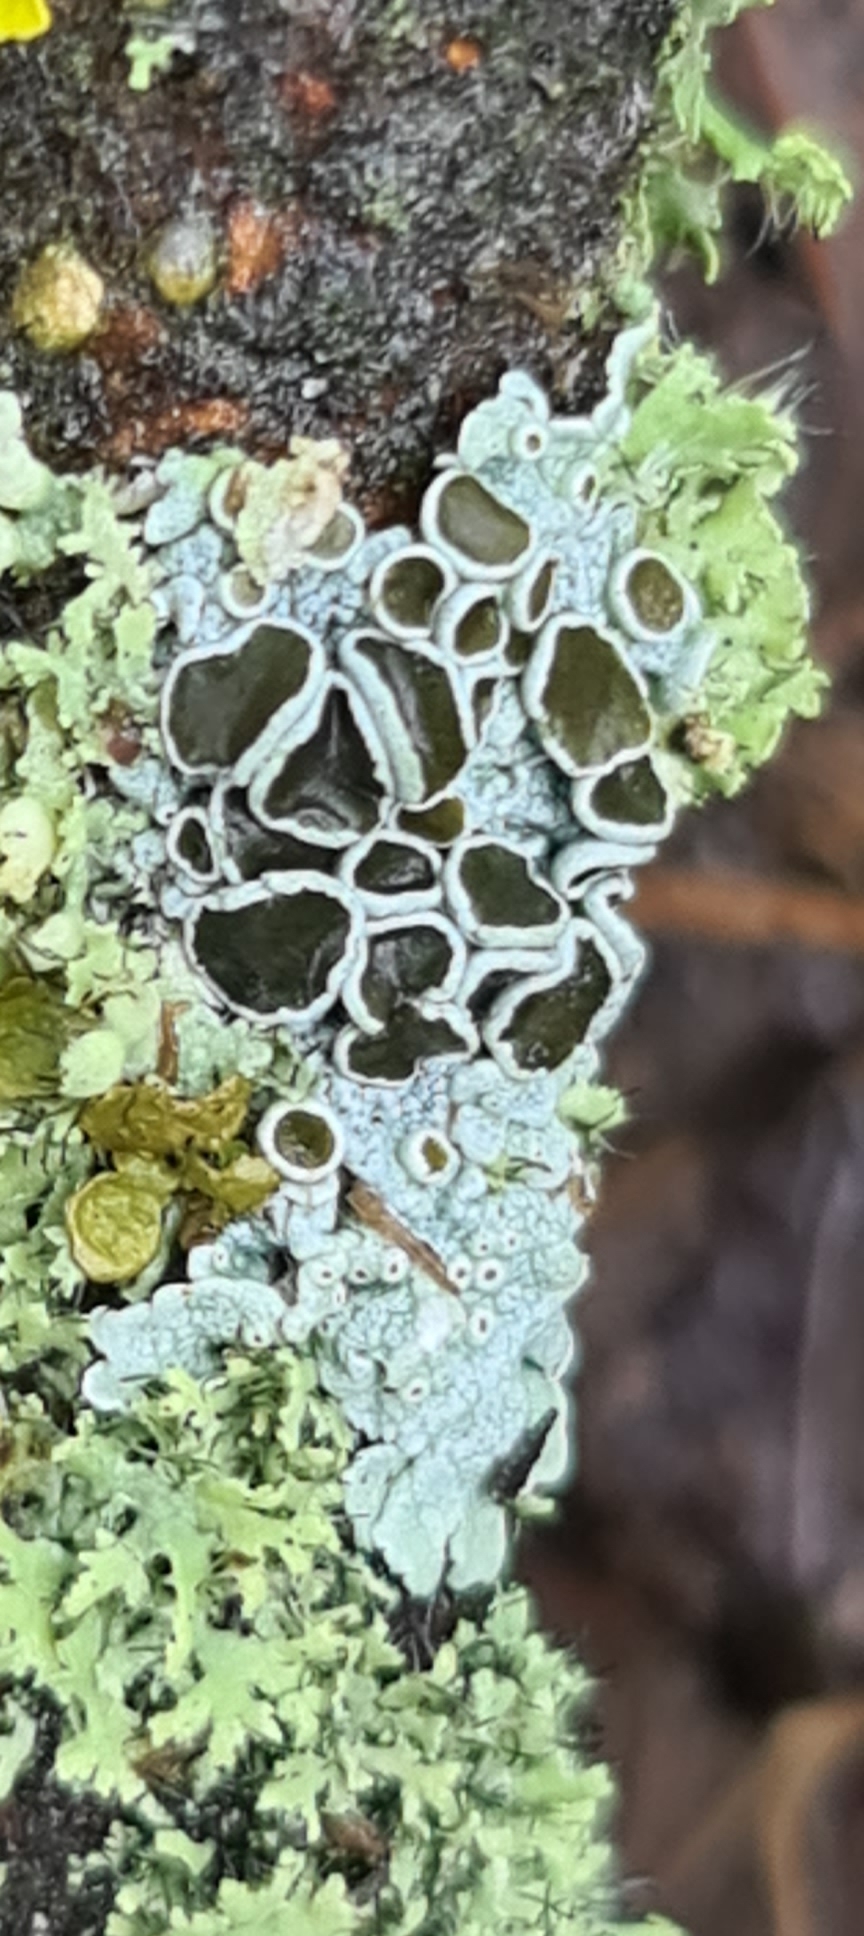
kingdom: Fungi
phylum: Ascomycota
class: Lecanoromycetes
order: Caliciales
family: Physciaceae
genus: Physcia
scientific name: Physcia aipolia
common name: Hoary rosette lichen
